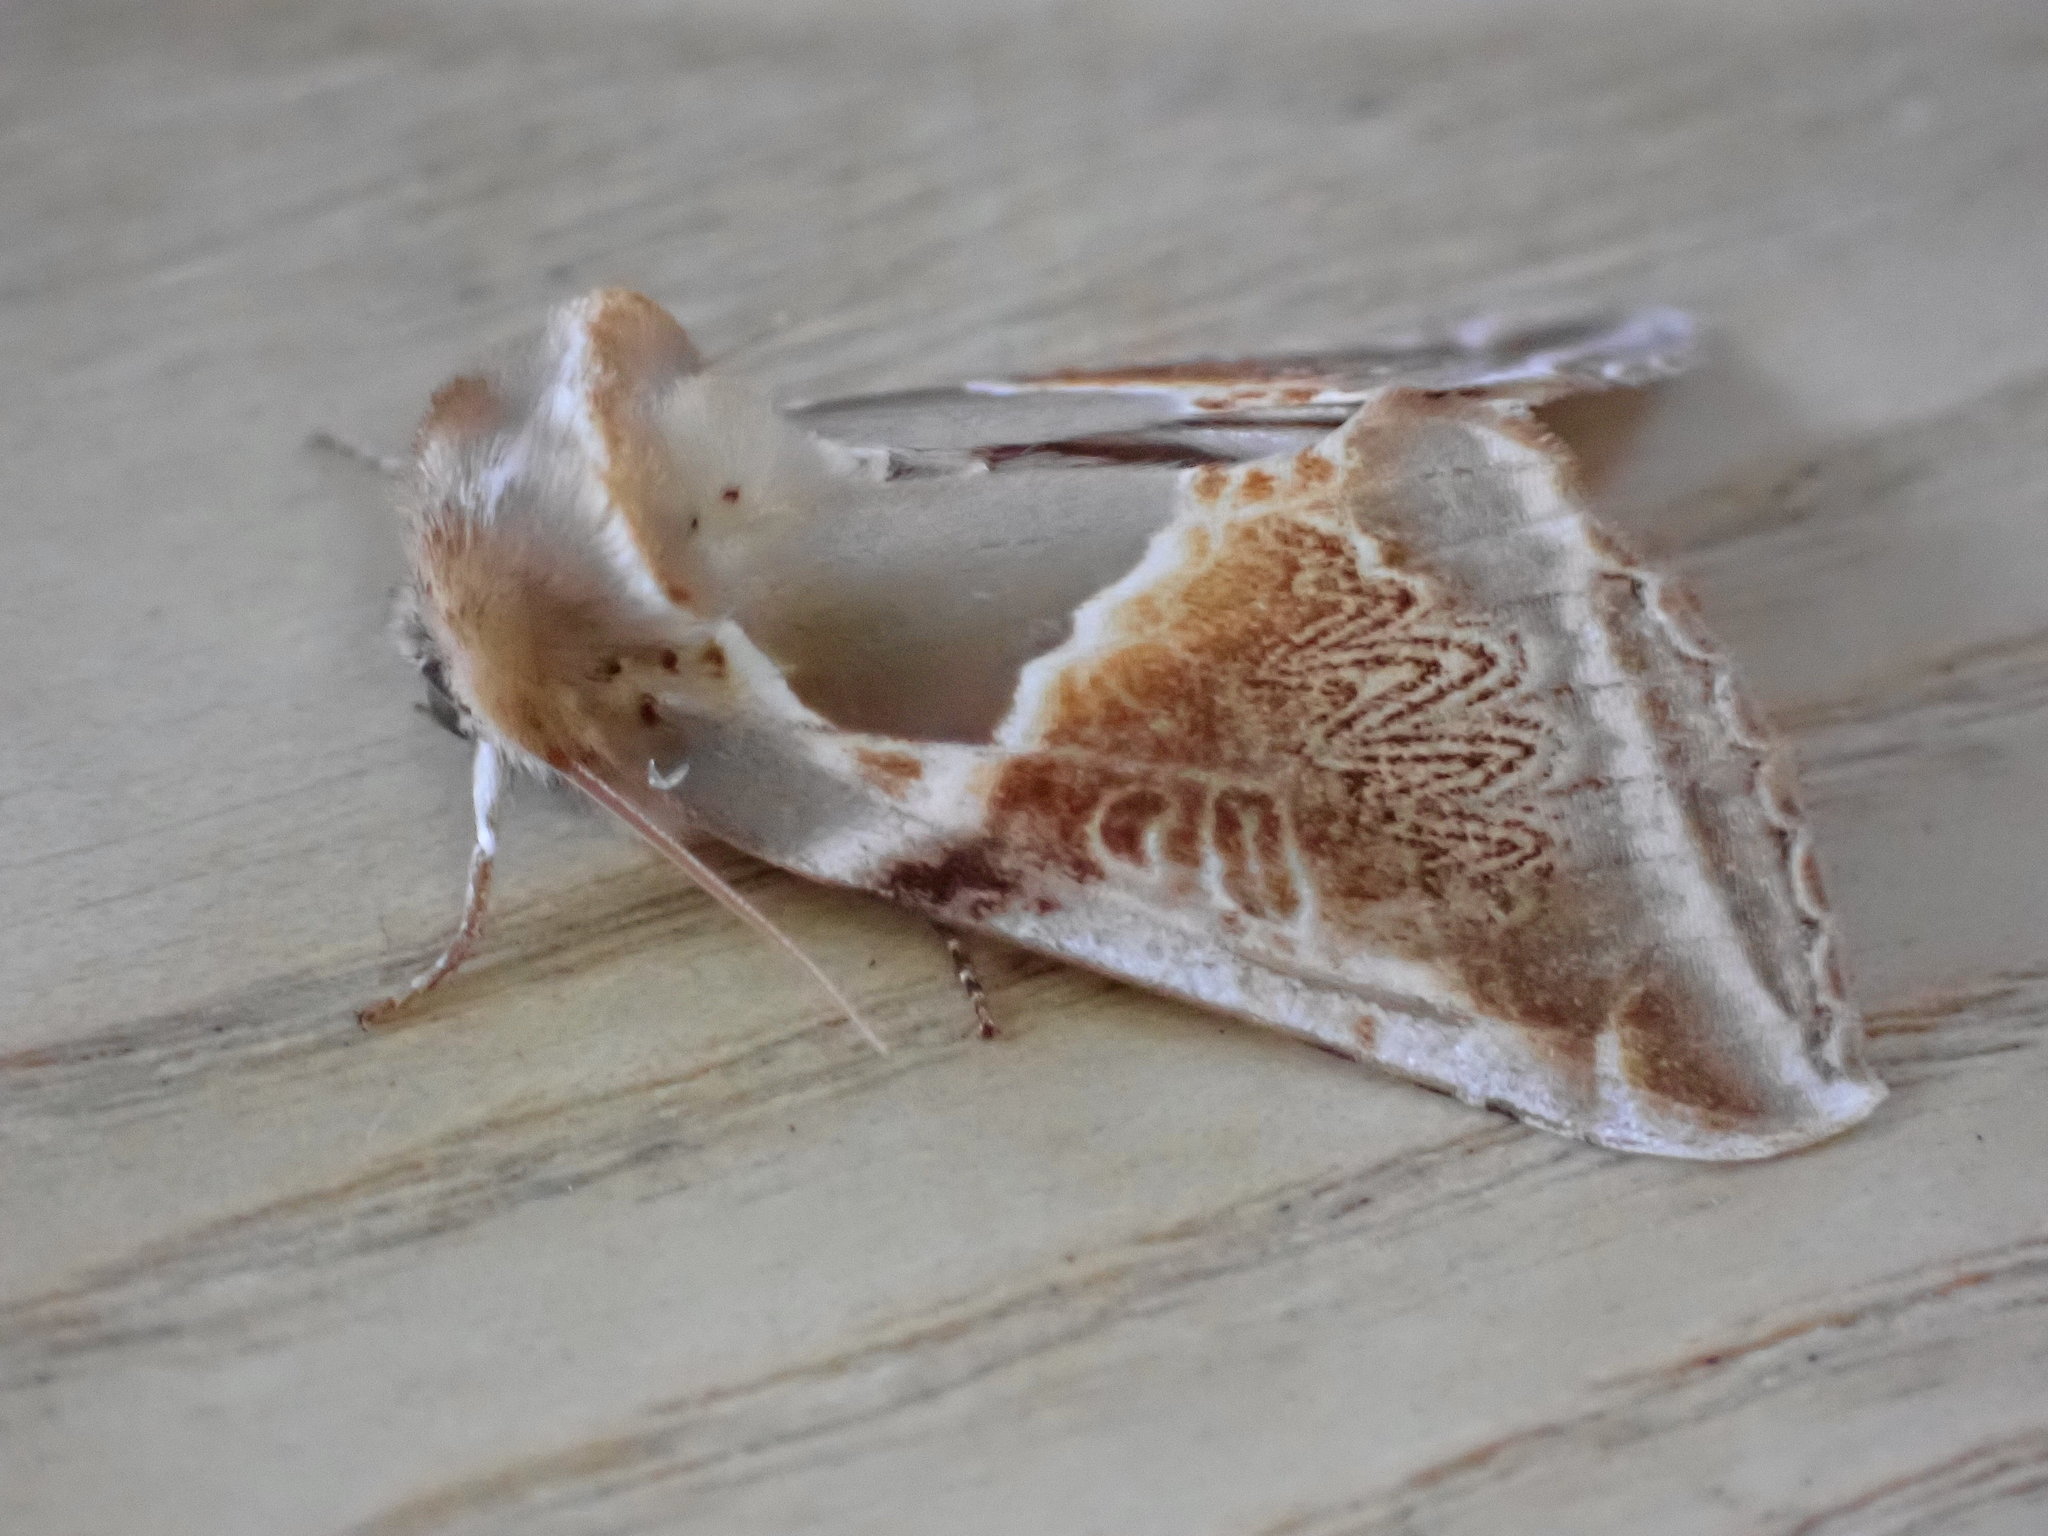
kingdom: Animalia
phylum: Arthropoda
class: Insecta
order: Lepidoptera
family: Drepanidae
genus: Habrosyne
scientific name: Habrosyne pyritoides
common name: Buff arches
